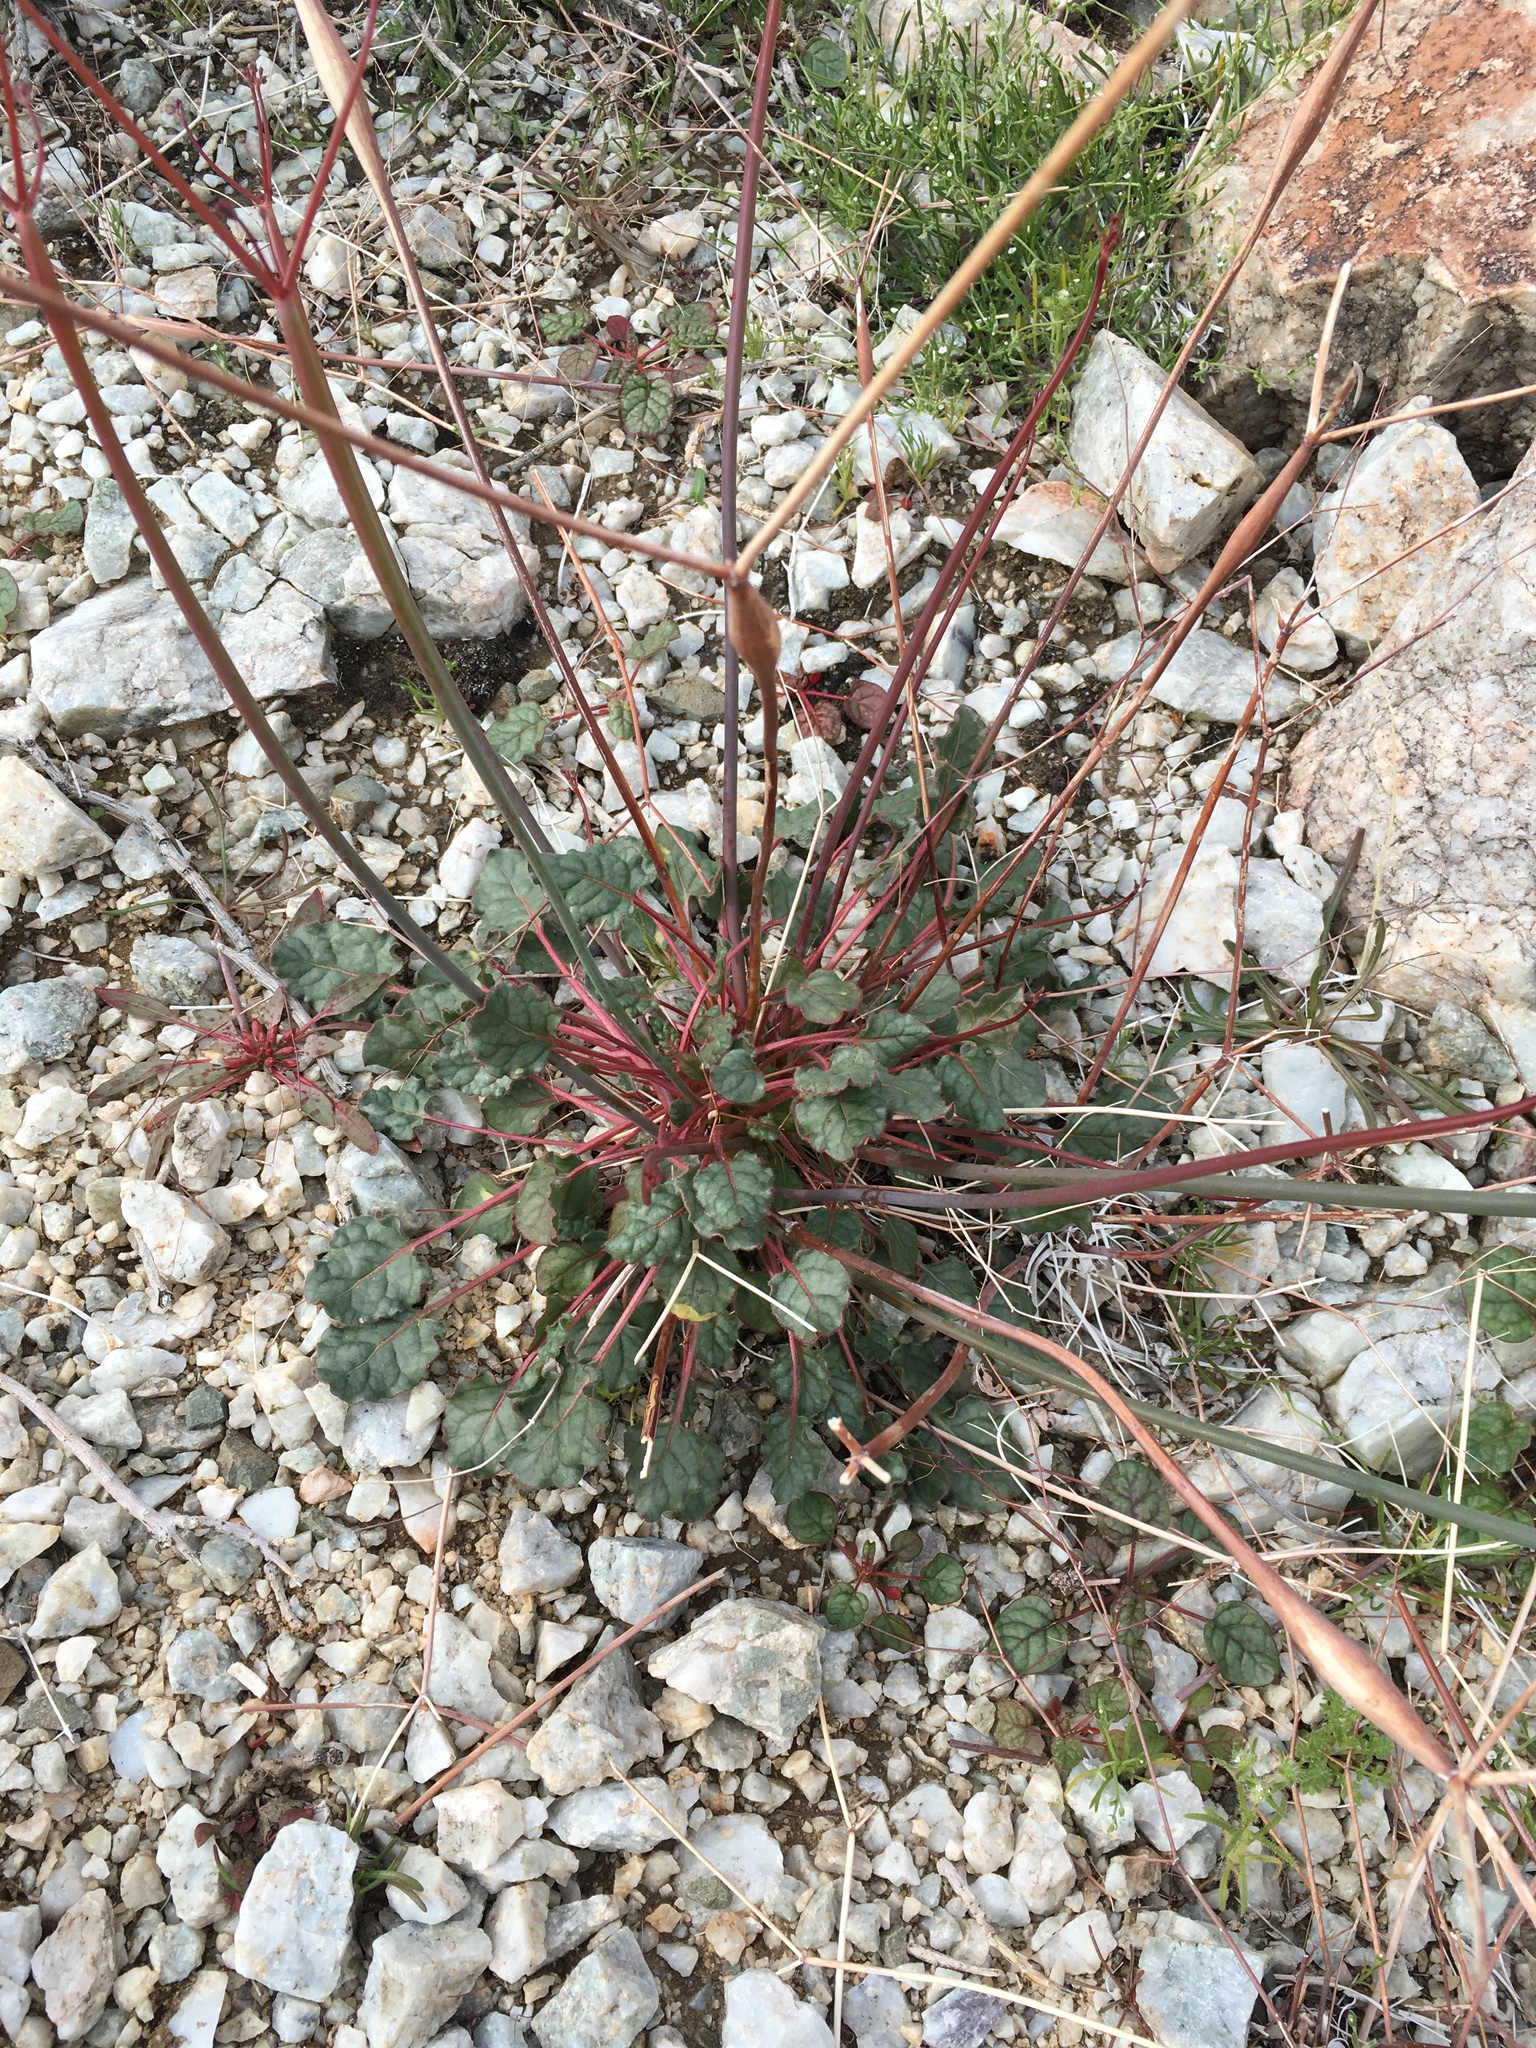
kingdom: Plantae
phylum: Tracheophyta
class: Magnoliopsida
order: Caryophyllales
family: Polygonaceae
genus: Eriogonum
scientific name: Eriogonum inflatum
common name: Desert trumpet
